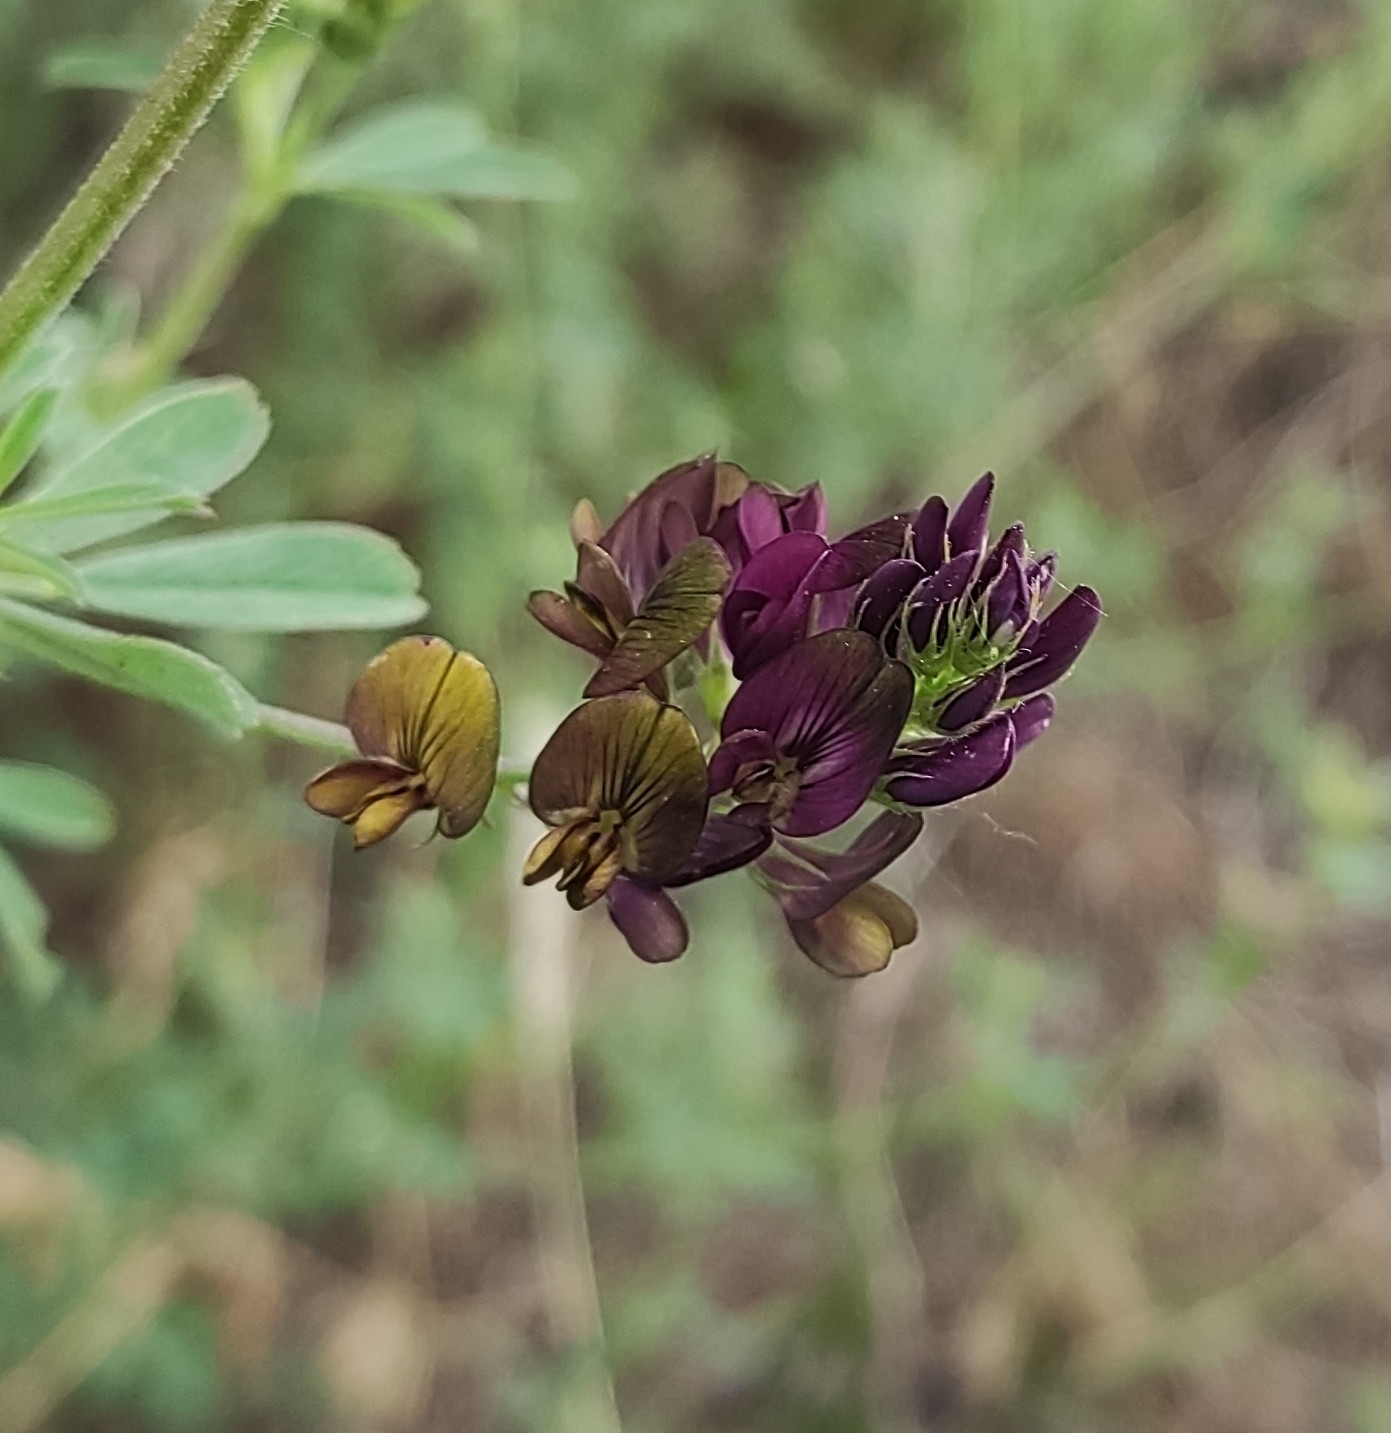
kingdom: Plantae
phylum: Tracheophyta
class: Magnoliopsida
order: Fabales
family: Fabaceae
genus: Medicago
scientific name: Medicago varia
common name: Sand lucerne
